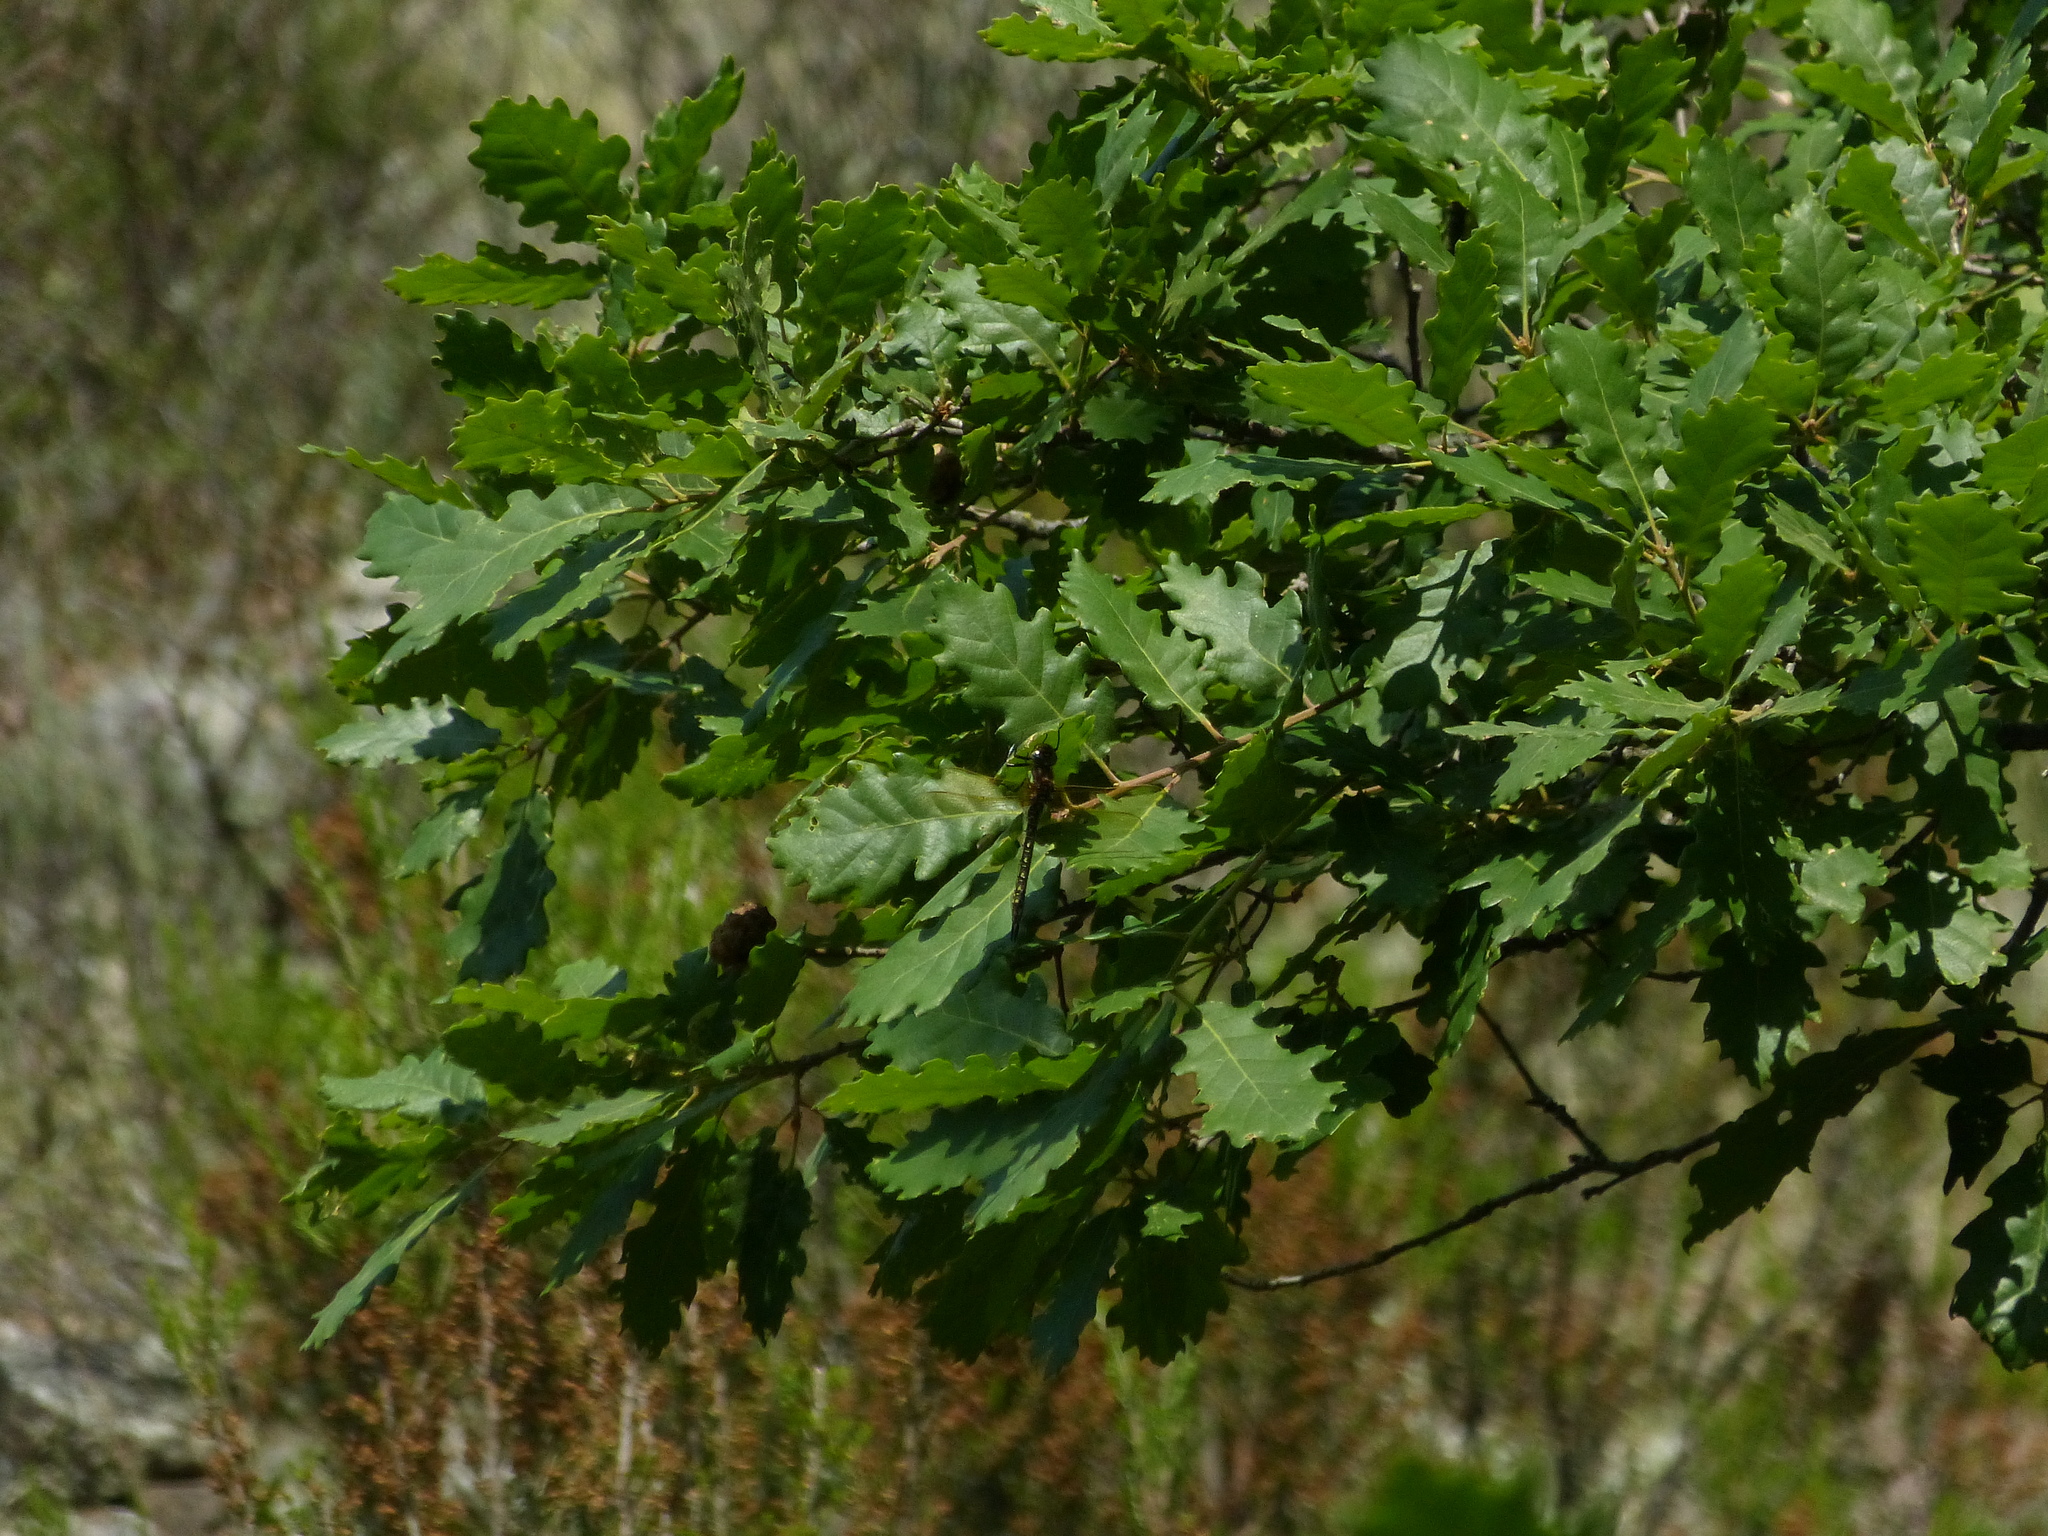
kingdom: Animalia
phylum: Arthropoda
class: Insecta
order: Odonata
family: Aeshnidae
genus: Brachytron
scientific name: Brachytron pratense
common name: Hairy hawker
